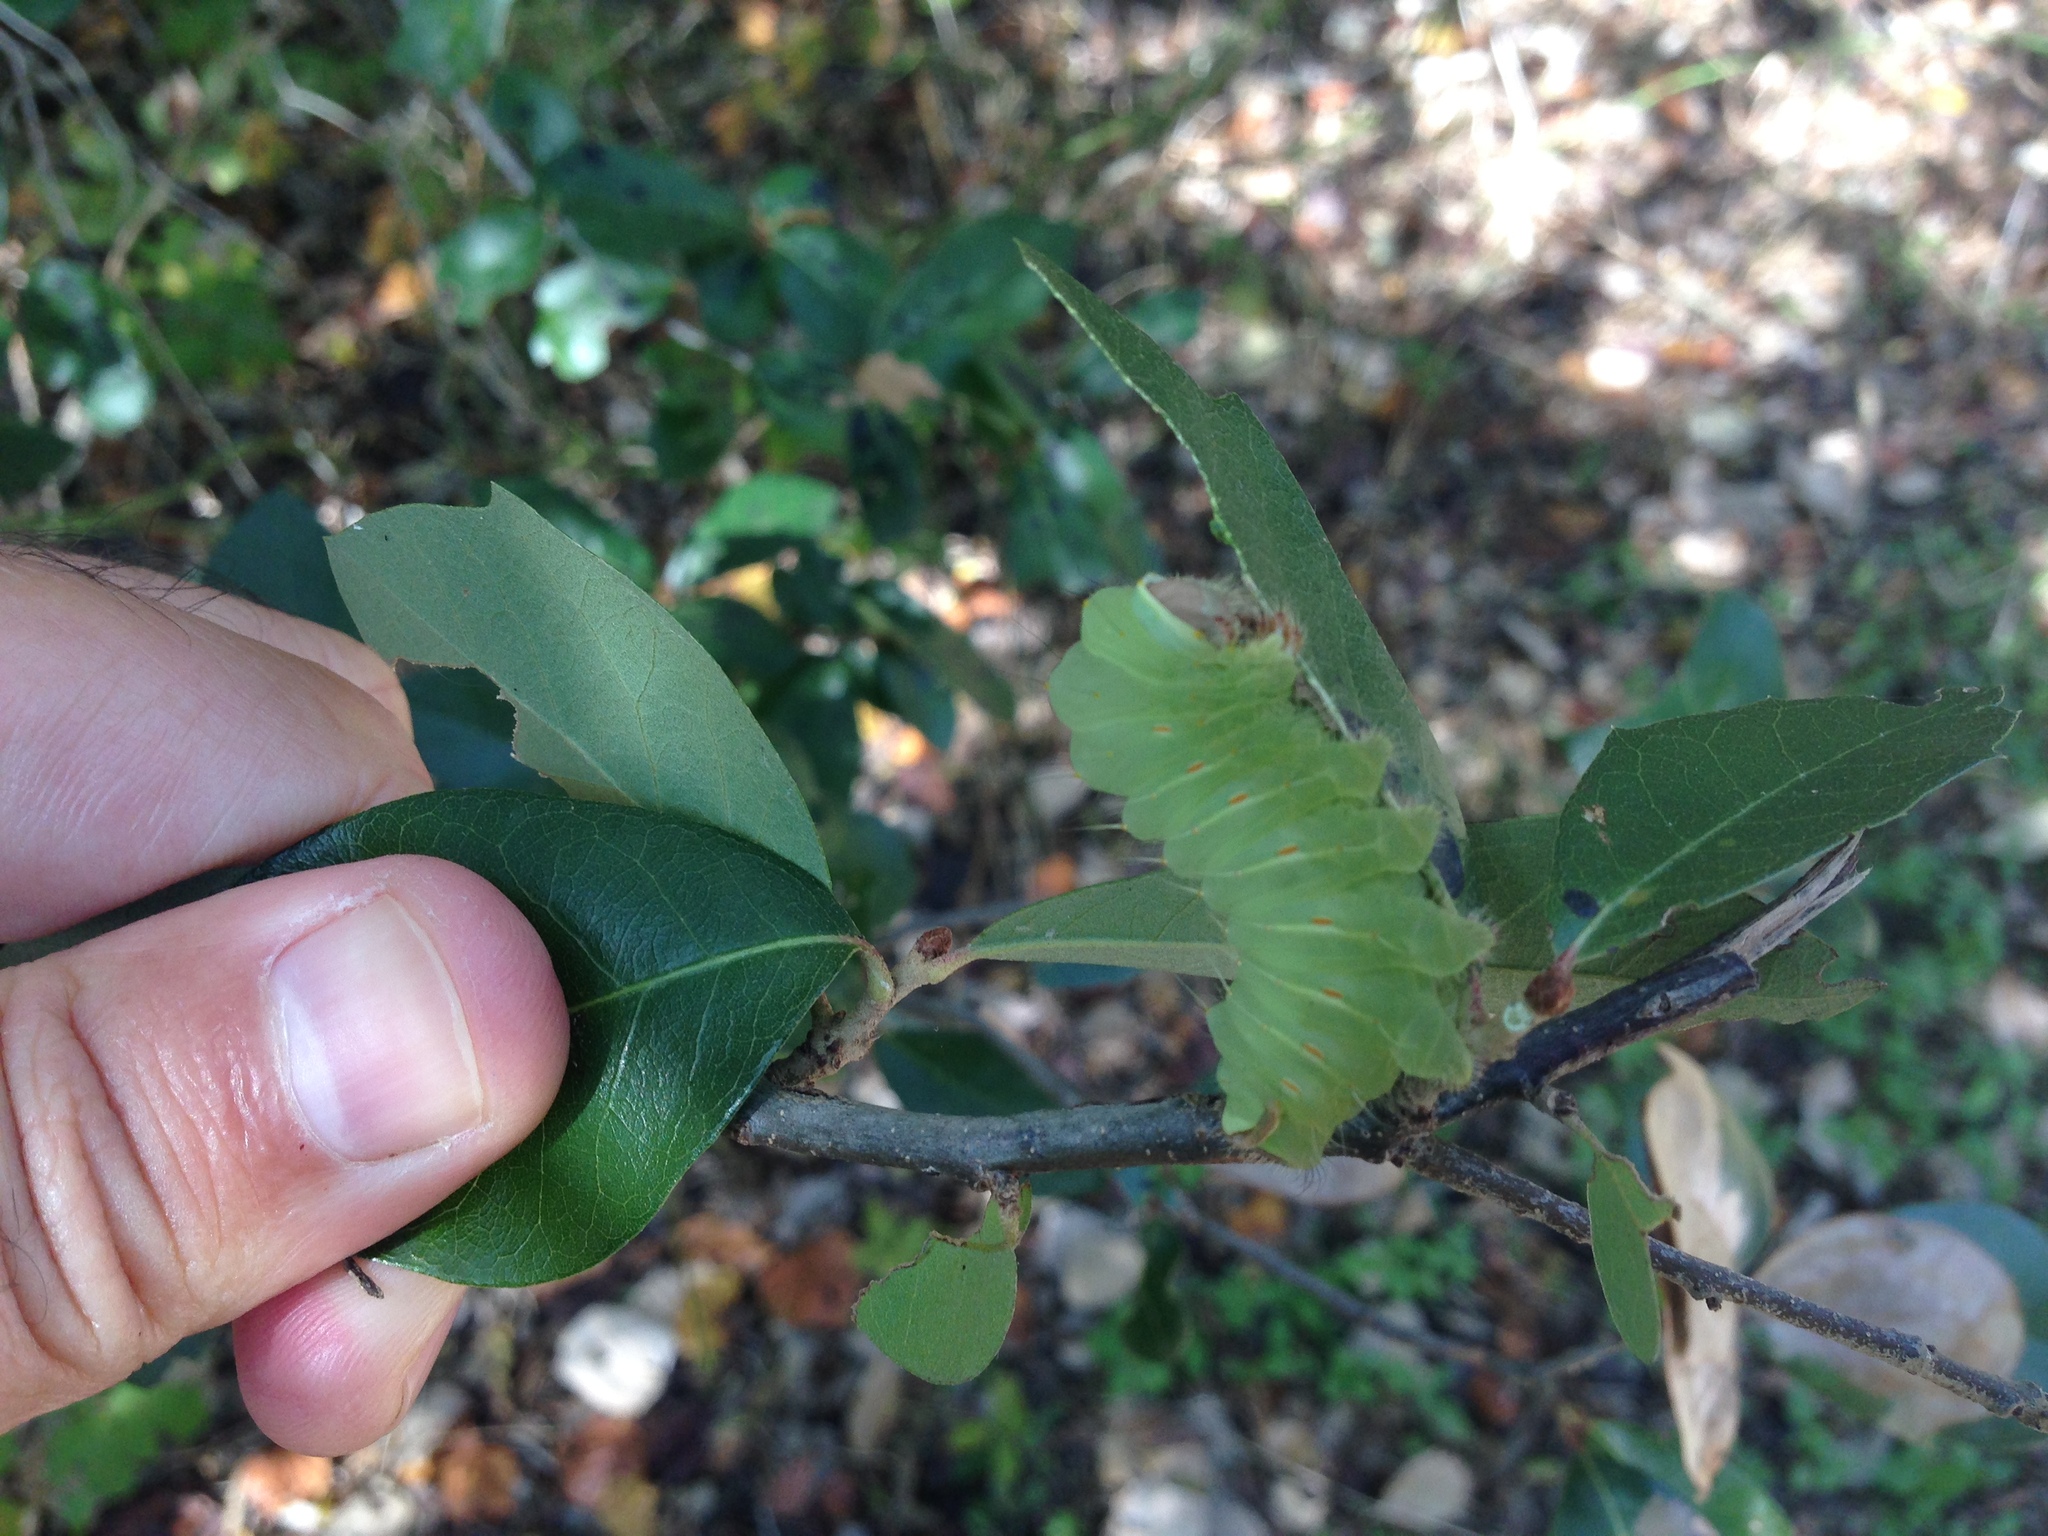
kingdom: Animalia
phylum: Arthropoda
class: Insecta
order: Lepidoptera
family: Saturniidae
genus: Antheraea
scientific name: Antheraea polyphemus
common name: Polyphemus moth
